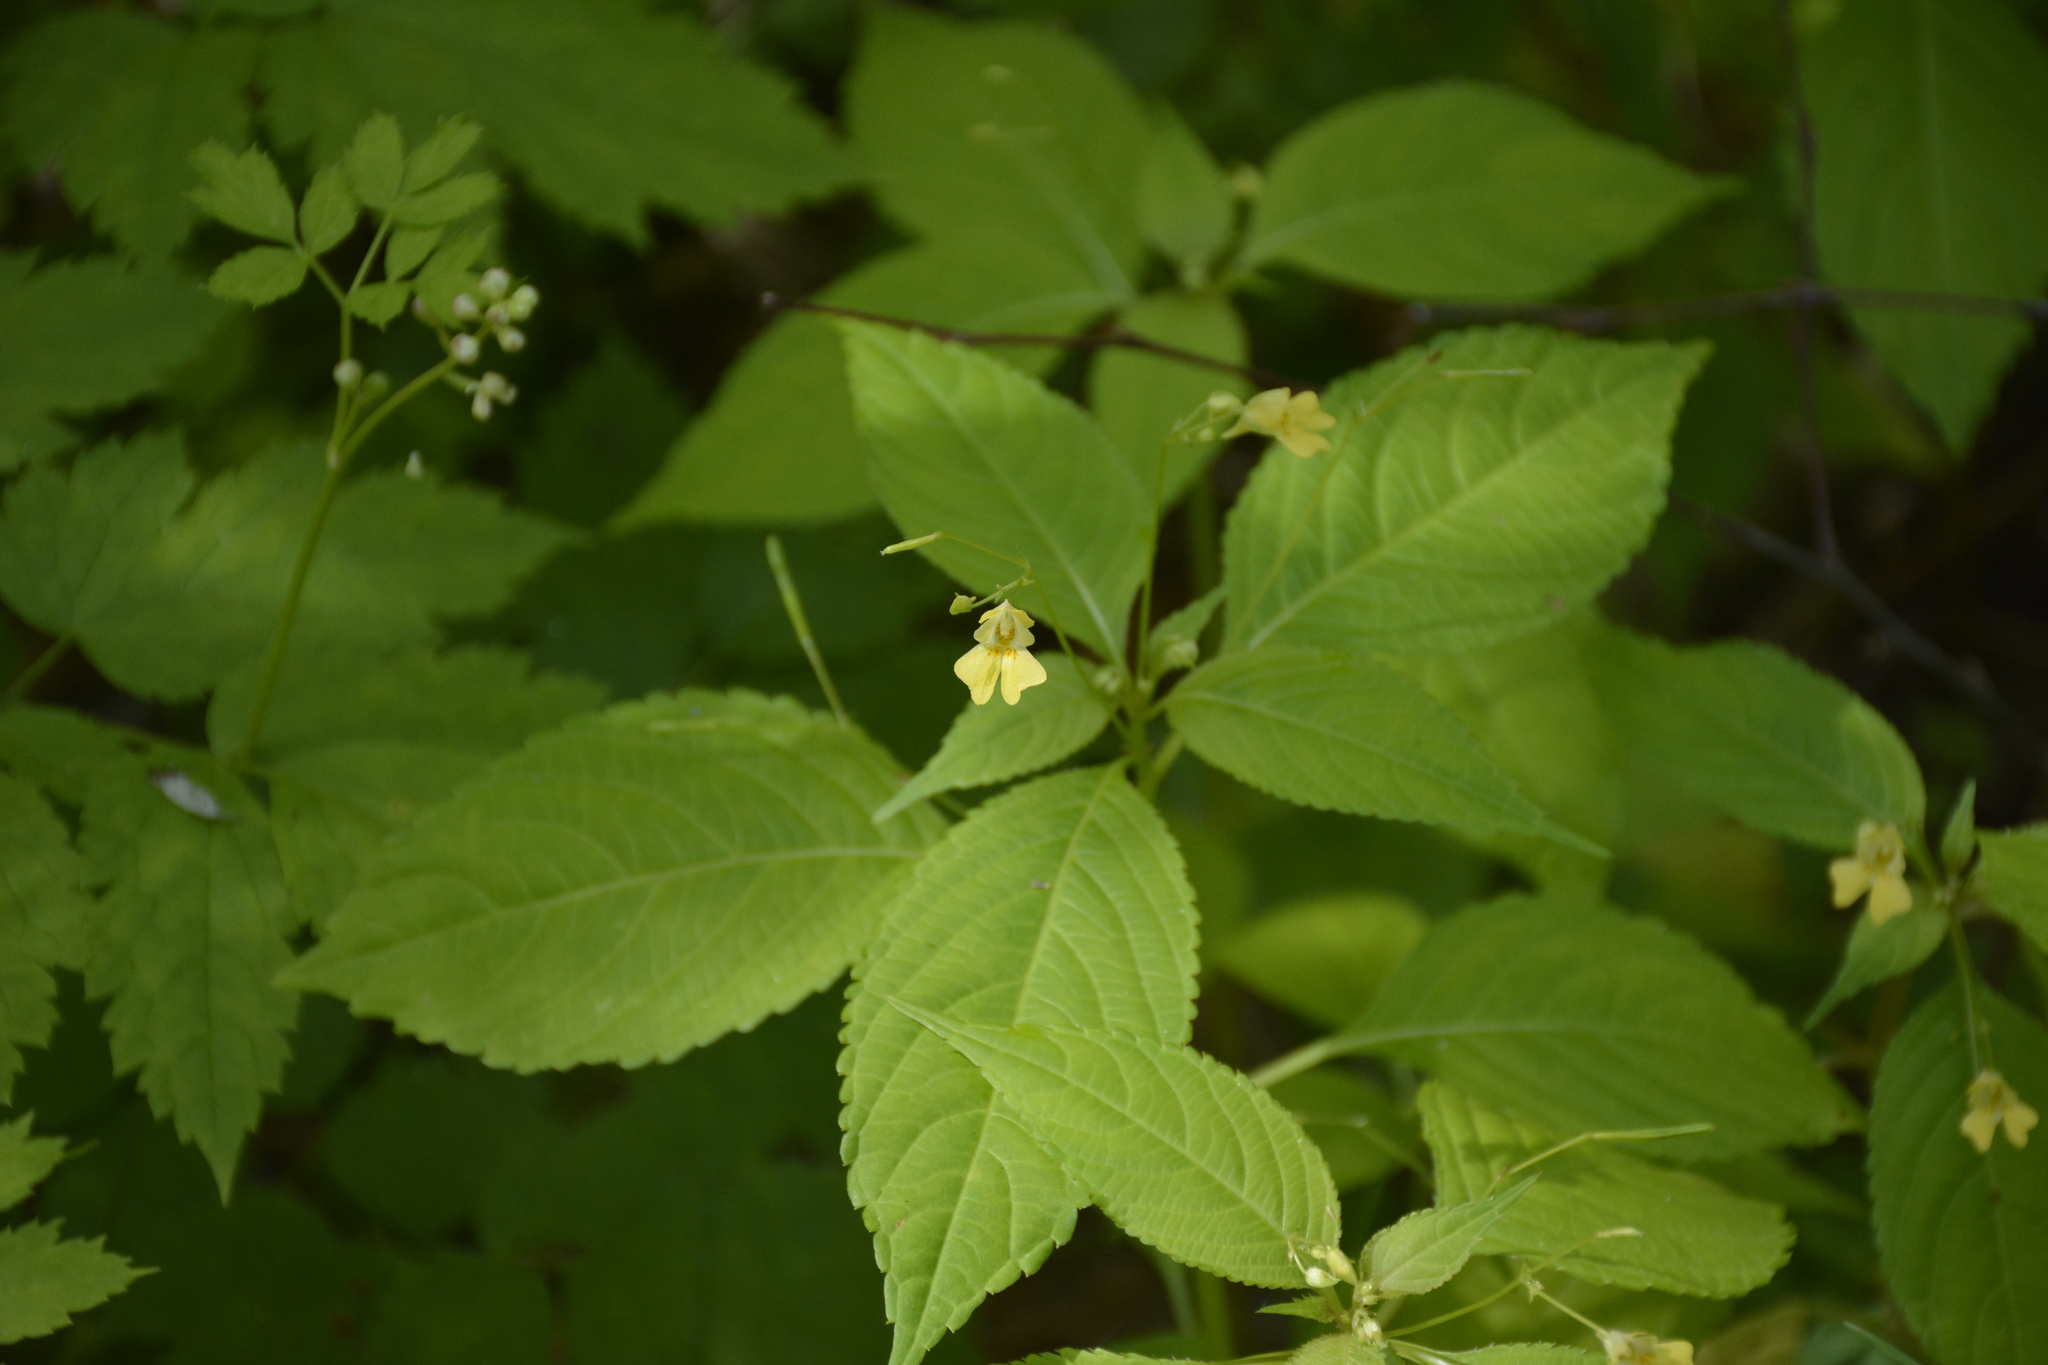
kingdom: Plantae
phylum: Tracheophyta
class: Magnoliopsida
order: Ericales
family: Balsaminaceae
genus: Impatiens
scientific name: Impatiens parviflora
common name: Small balsam
